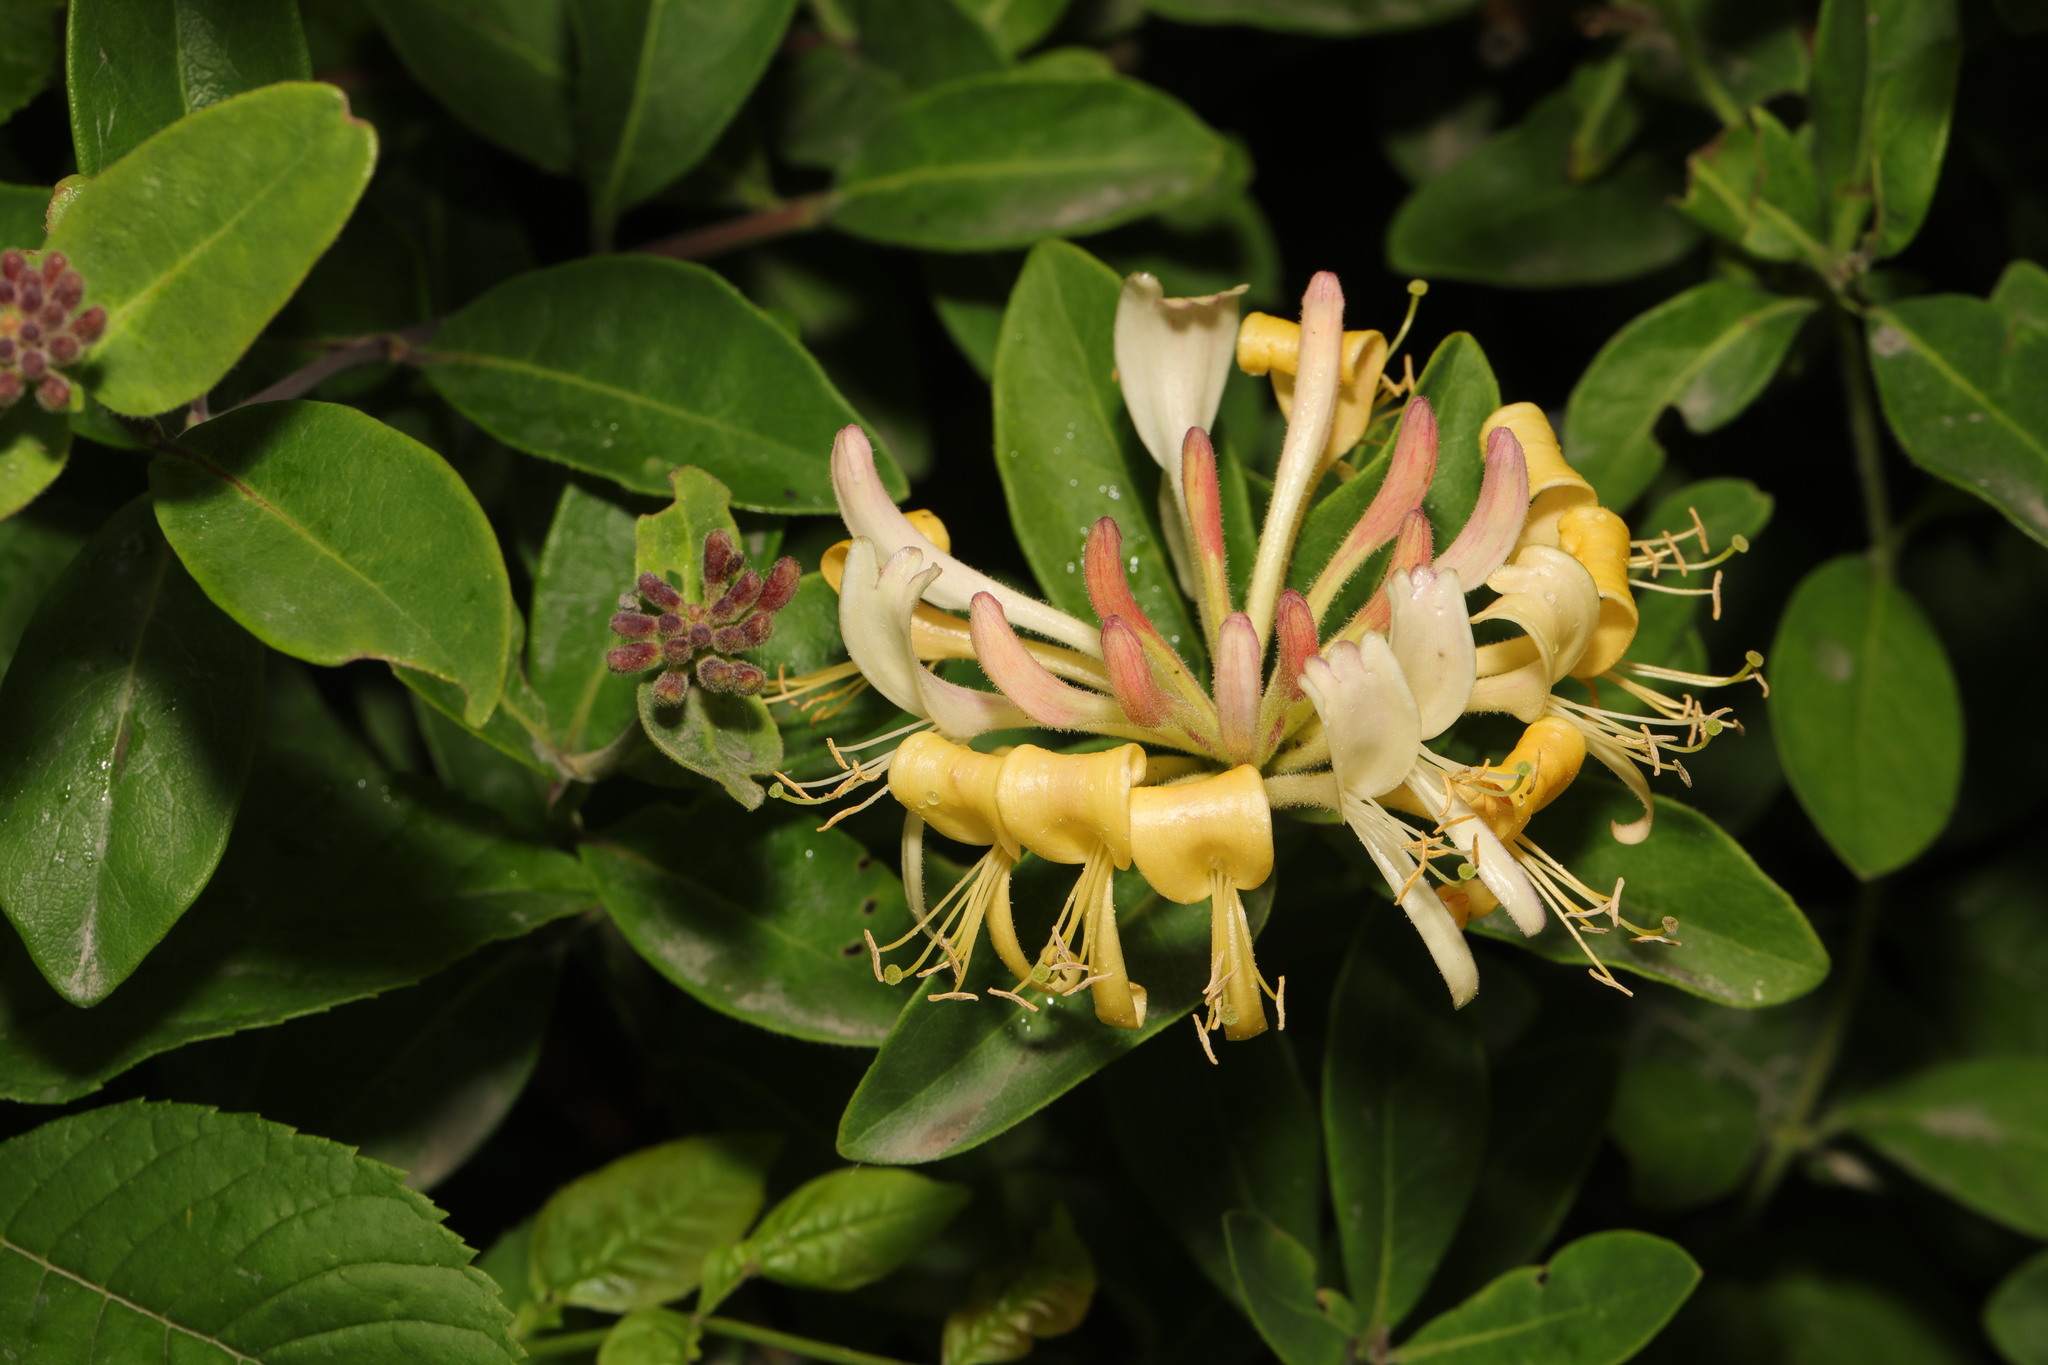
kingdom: Plantae
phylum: Tracheophyta
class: Magnoliopsida
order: Dipsacales
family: Caprifoliaceae
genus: Lonicera
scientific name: Lonicera periclymenum
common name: European honeysuckle
